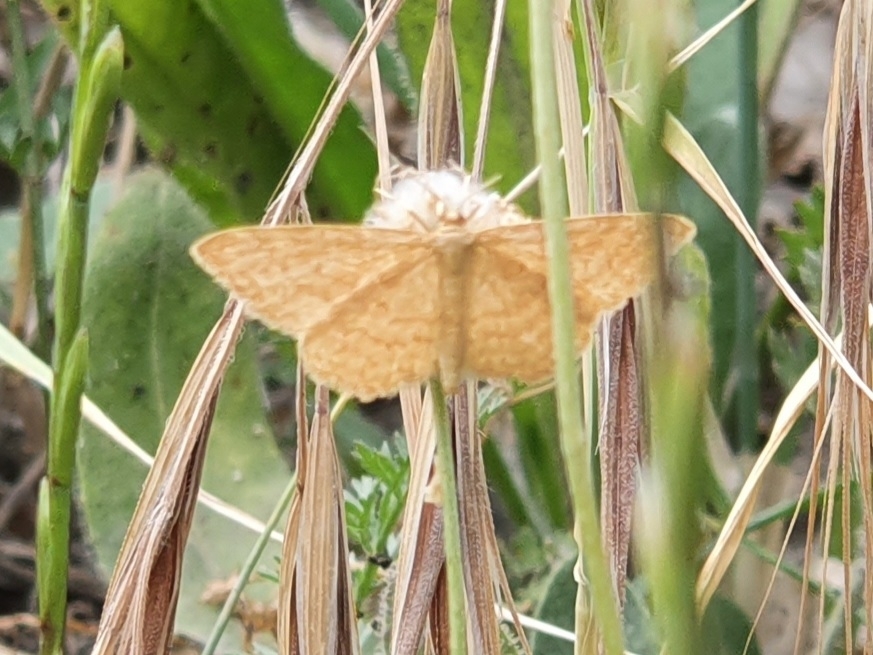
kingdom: Animalia
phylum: Arthropoda
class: Insecta
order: Lepidoptera
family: Geometridae
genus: Idaea
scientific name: Idaea ochrata
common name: Bright wave
